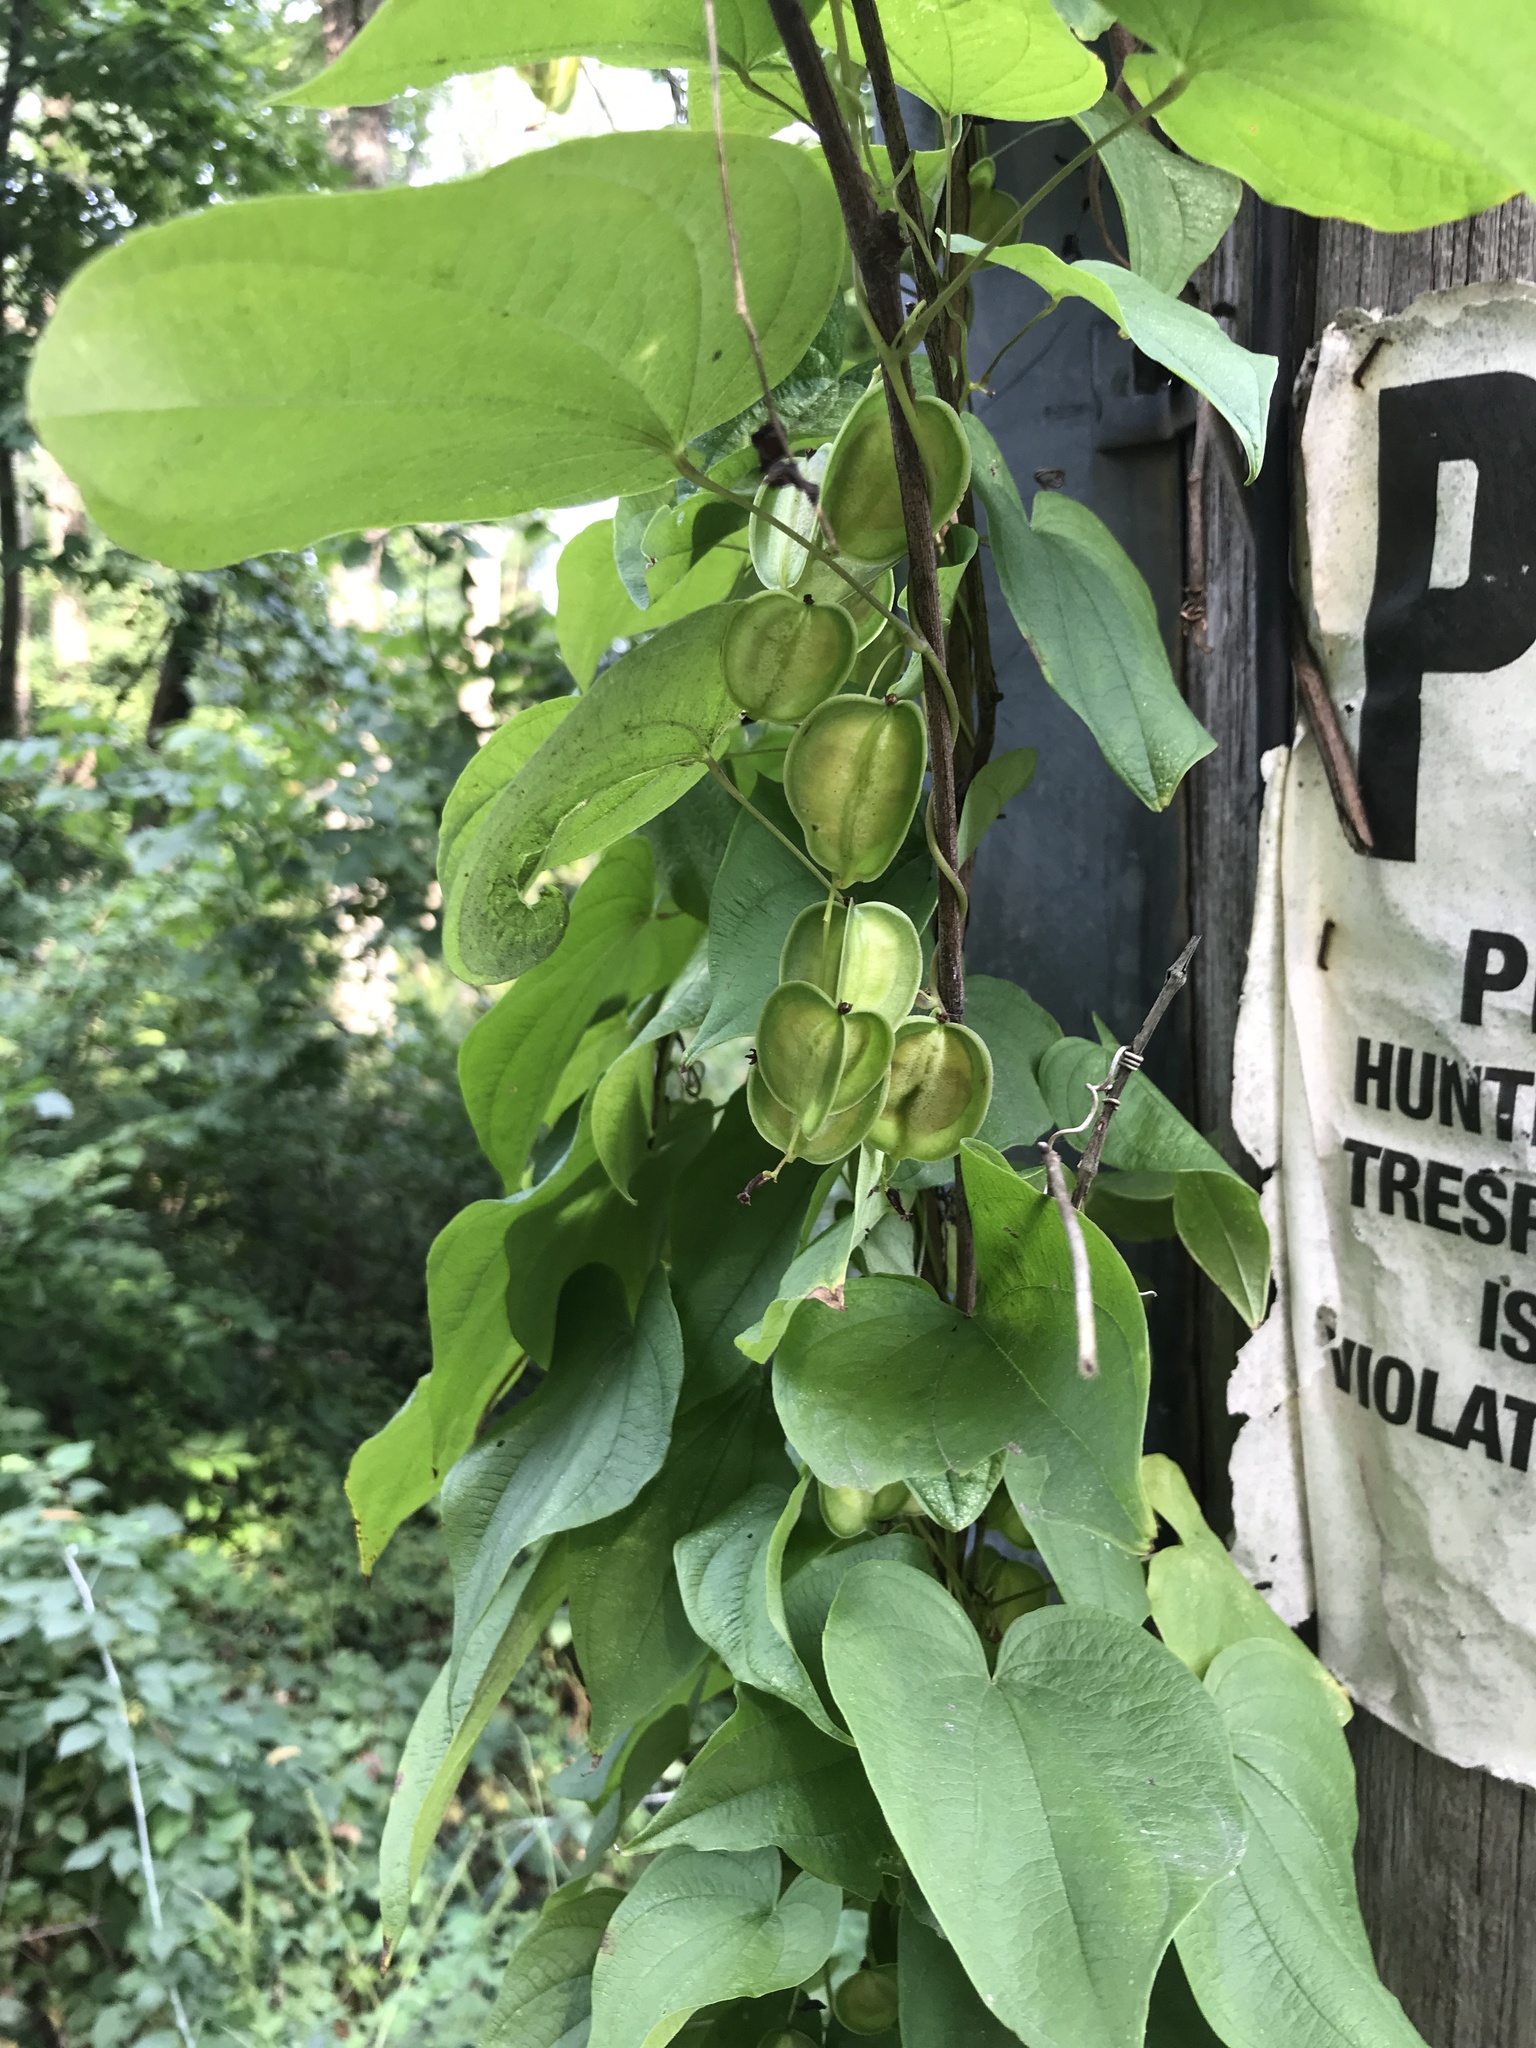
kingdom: Plantae
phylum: Tracheophyta
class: Liliopsida
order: Dioscoreales
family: Dioscoreaceae
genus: Dioscorea
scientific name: Dioscorea villosa
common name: Wild yam
